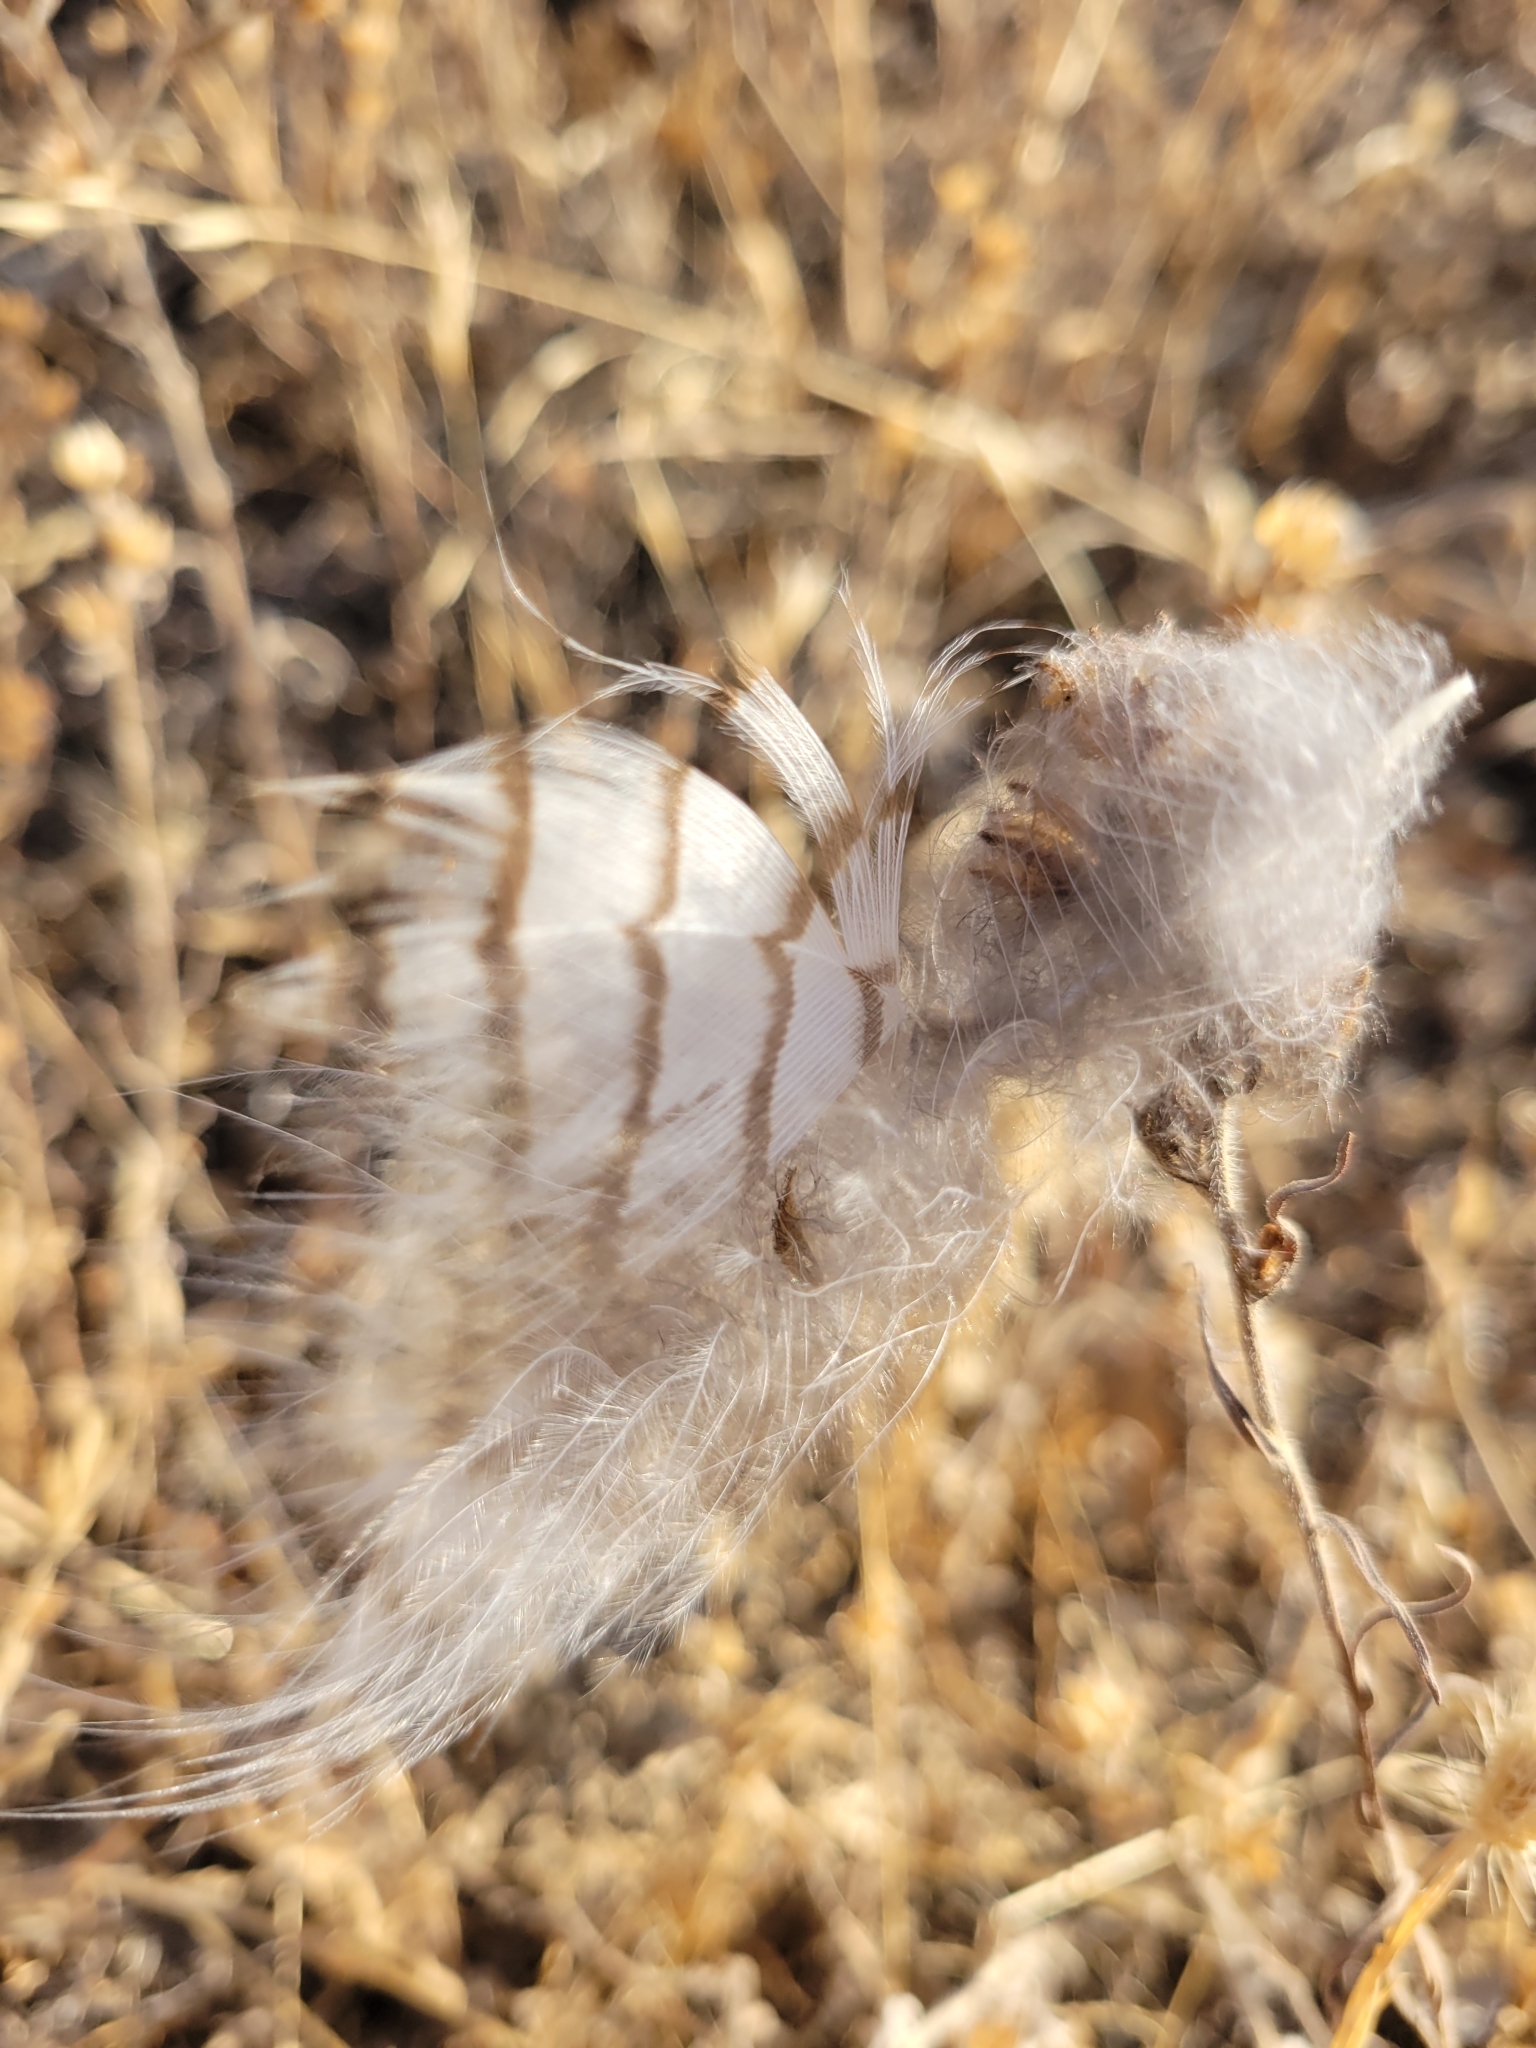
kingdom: Animalia
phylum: Chordata
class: Aves
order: Strigiformes
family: Strigidae
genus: Bubo
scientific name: Bubo virginianus
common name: Great horned owl
